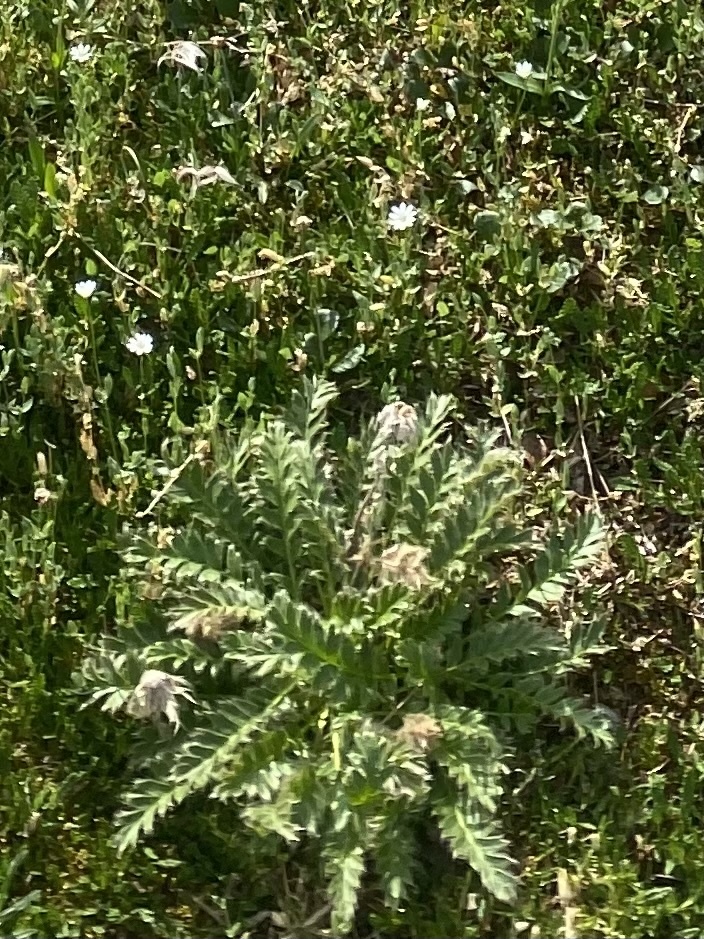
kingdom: Plantae
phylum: Tracheophyta
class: Magnoliopsida
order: Rosales
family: Rosaceae
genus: Geum
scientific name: Geum glaciale
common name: Glacier avens
